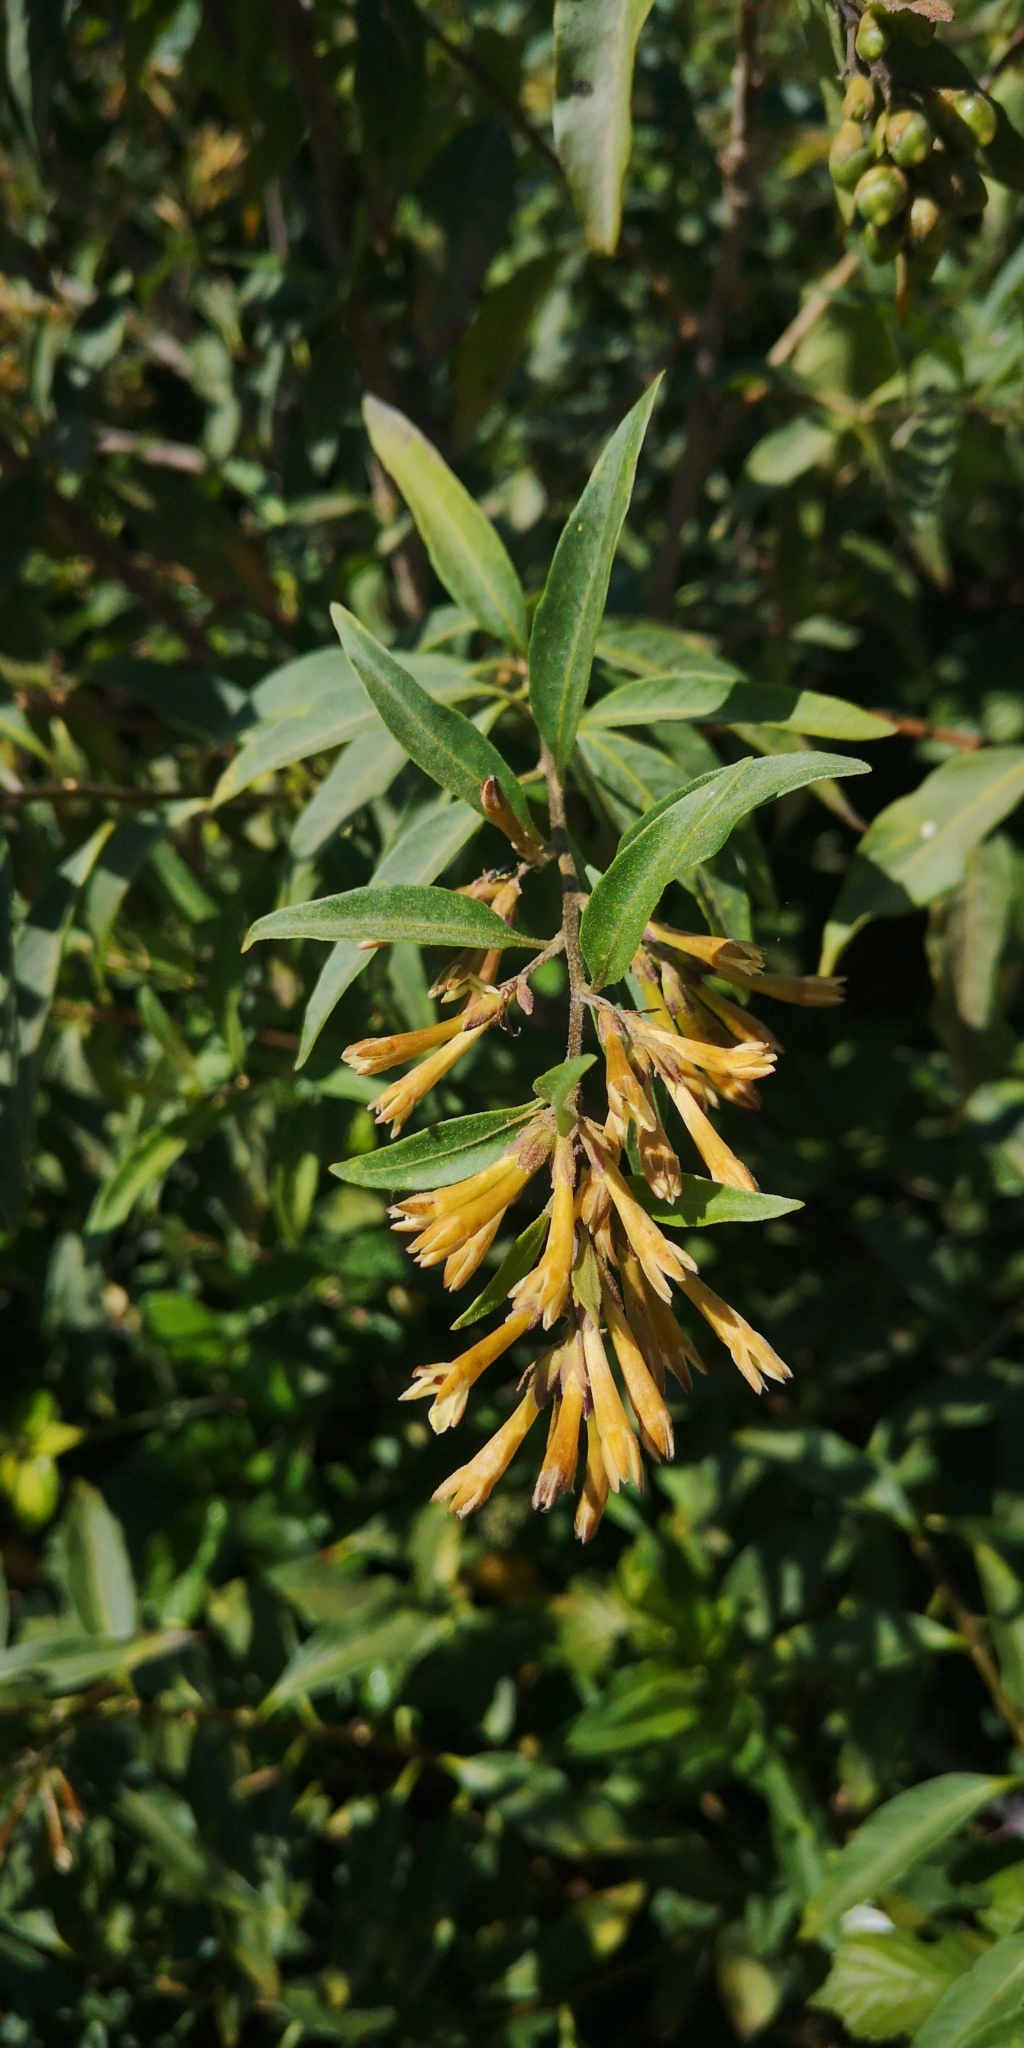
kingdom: Plantae
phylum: Tracheophyta
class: Magnoliopsida
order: Solanales
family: Solanaceae
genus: Cestrum
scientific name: Cestrum parqui
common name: Chilean cestrum
